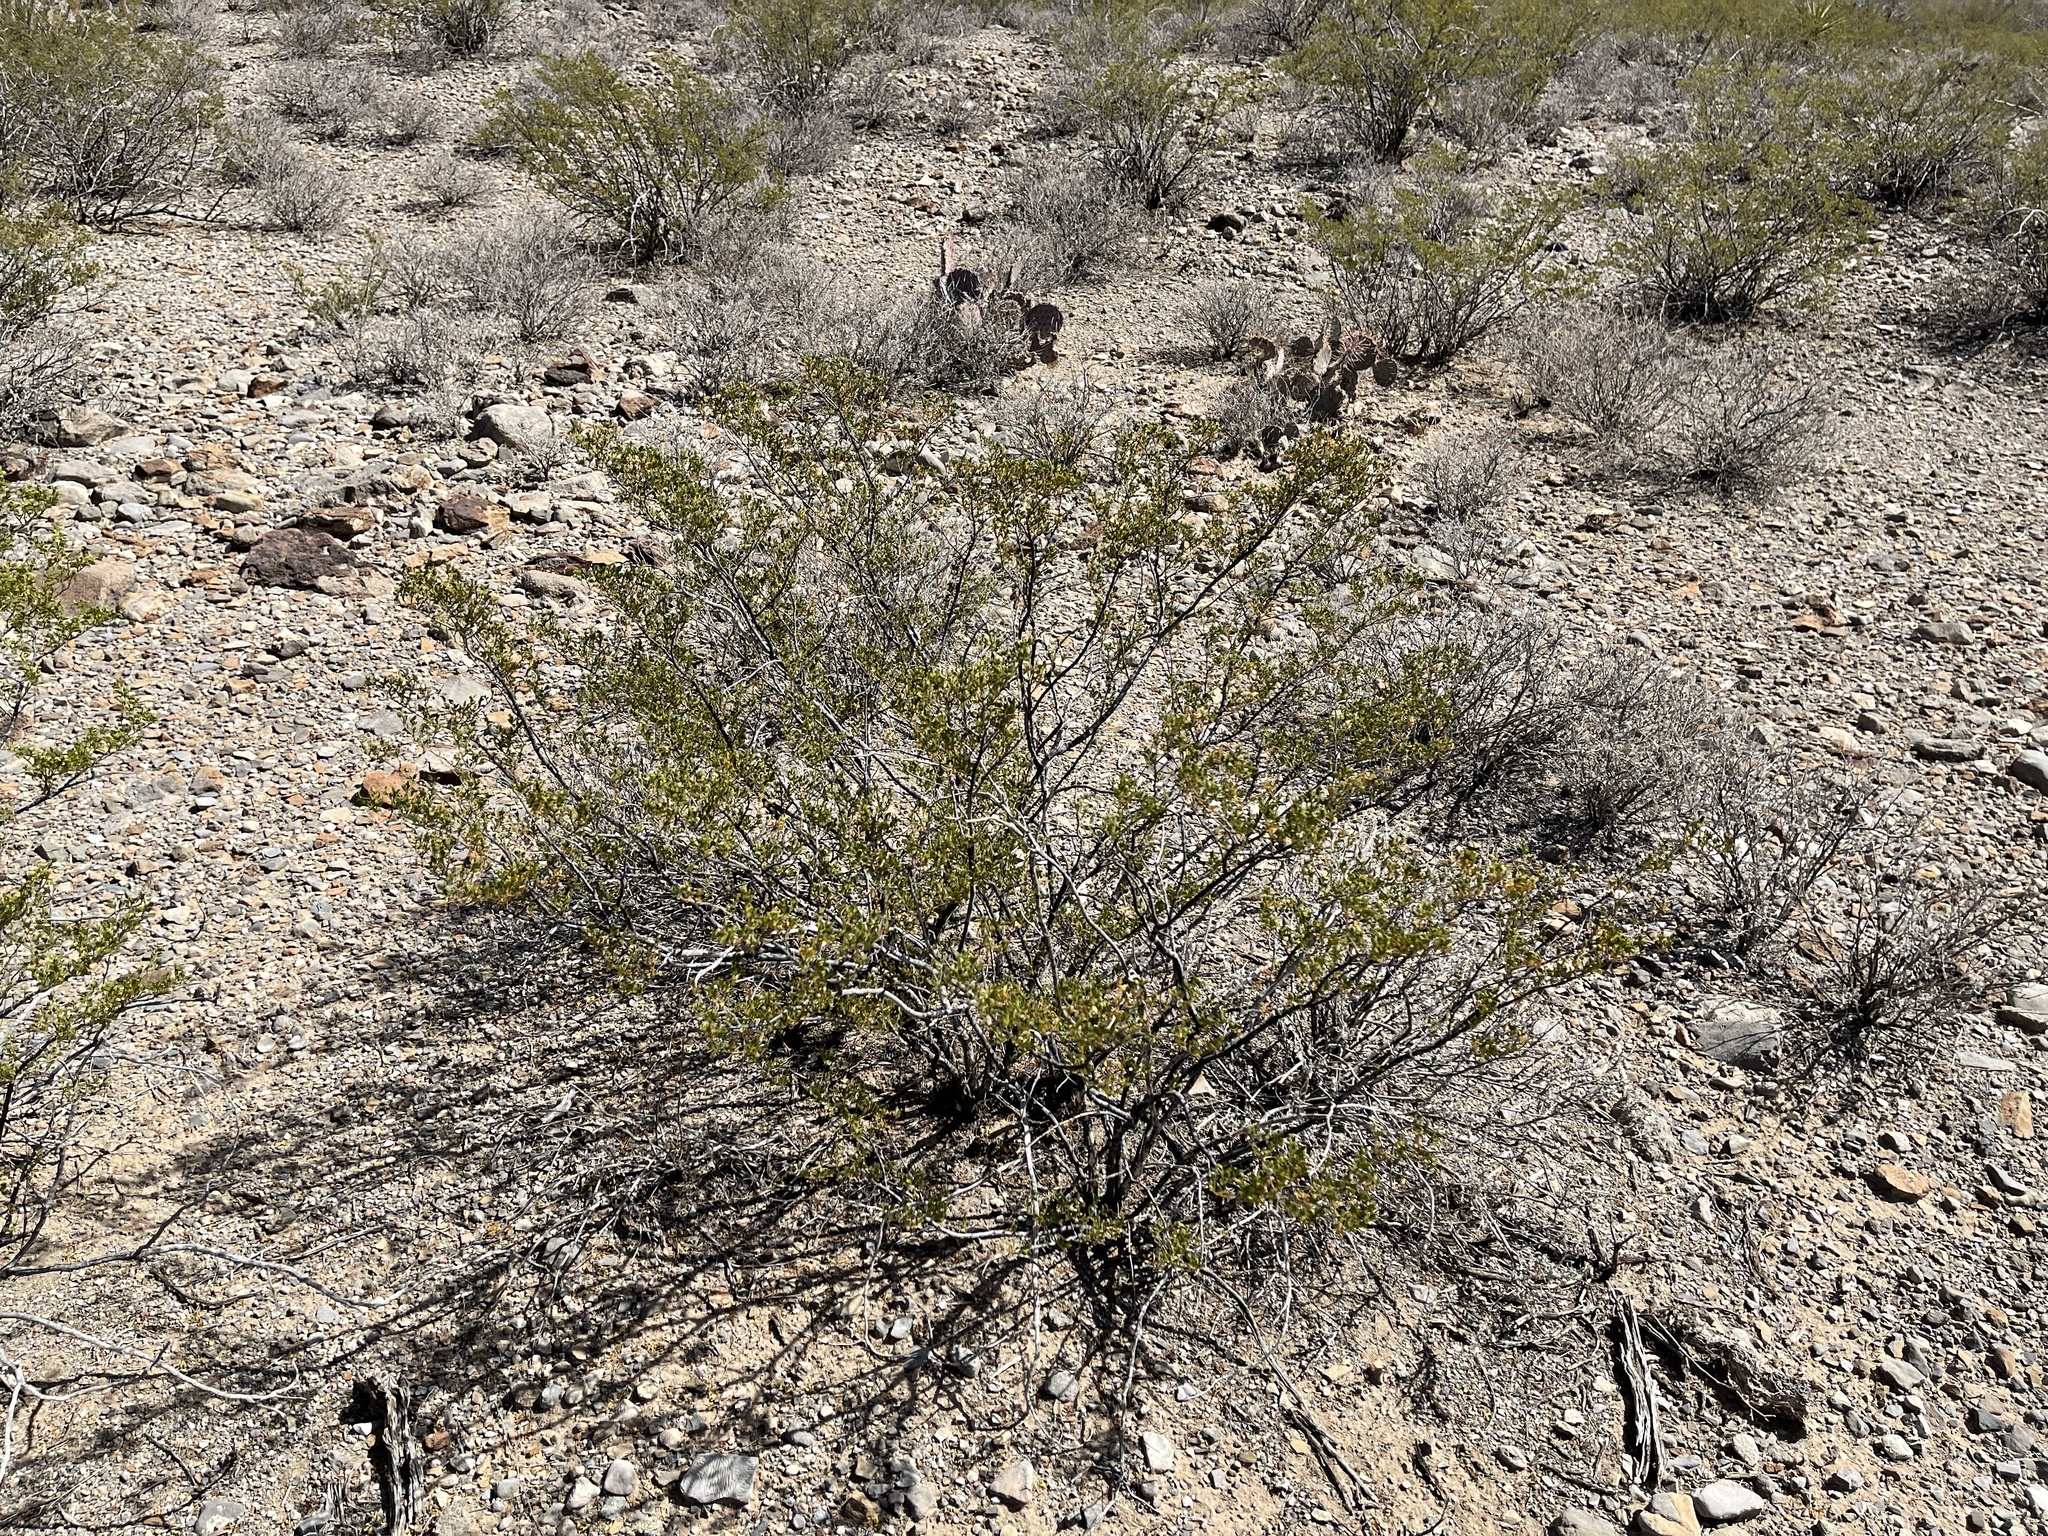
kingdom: Plantae
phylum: Tracheophyta
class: Magnoliopsida
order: Zygophyllales
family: Zygophyllaceae
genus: Larrea
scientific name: Larrea tridentata
